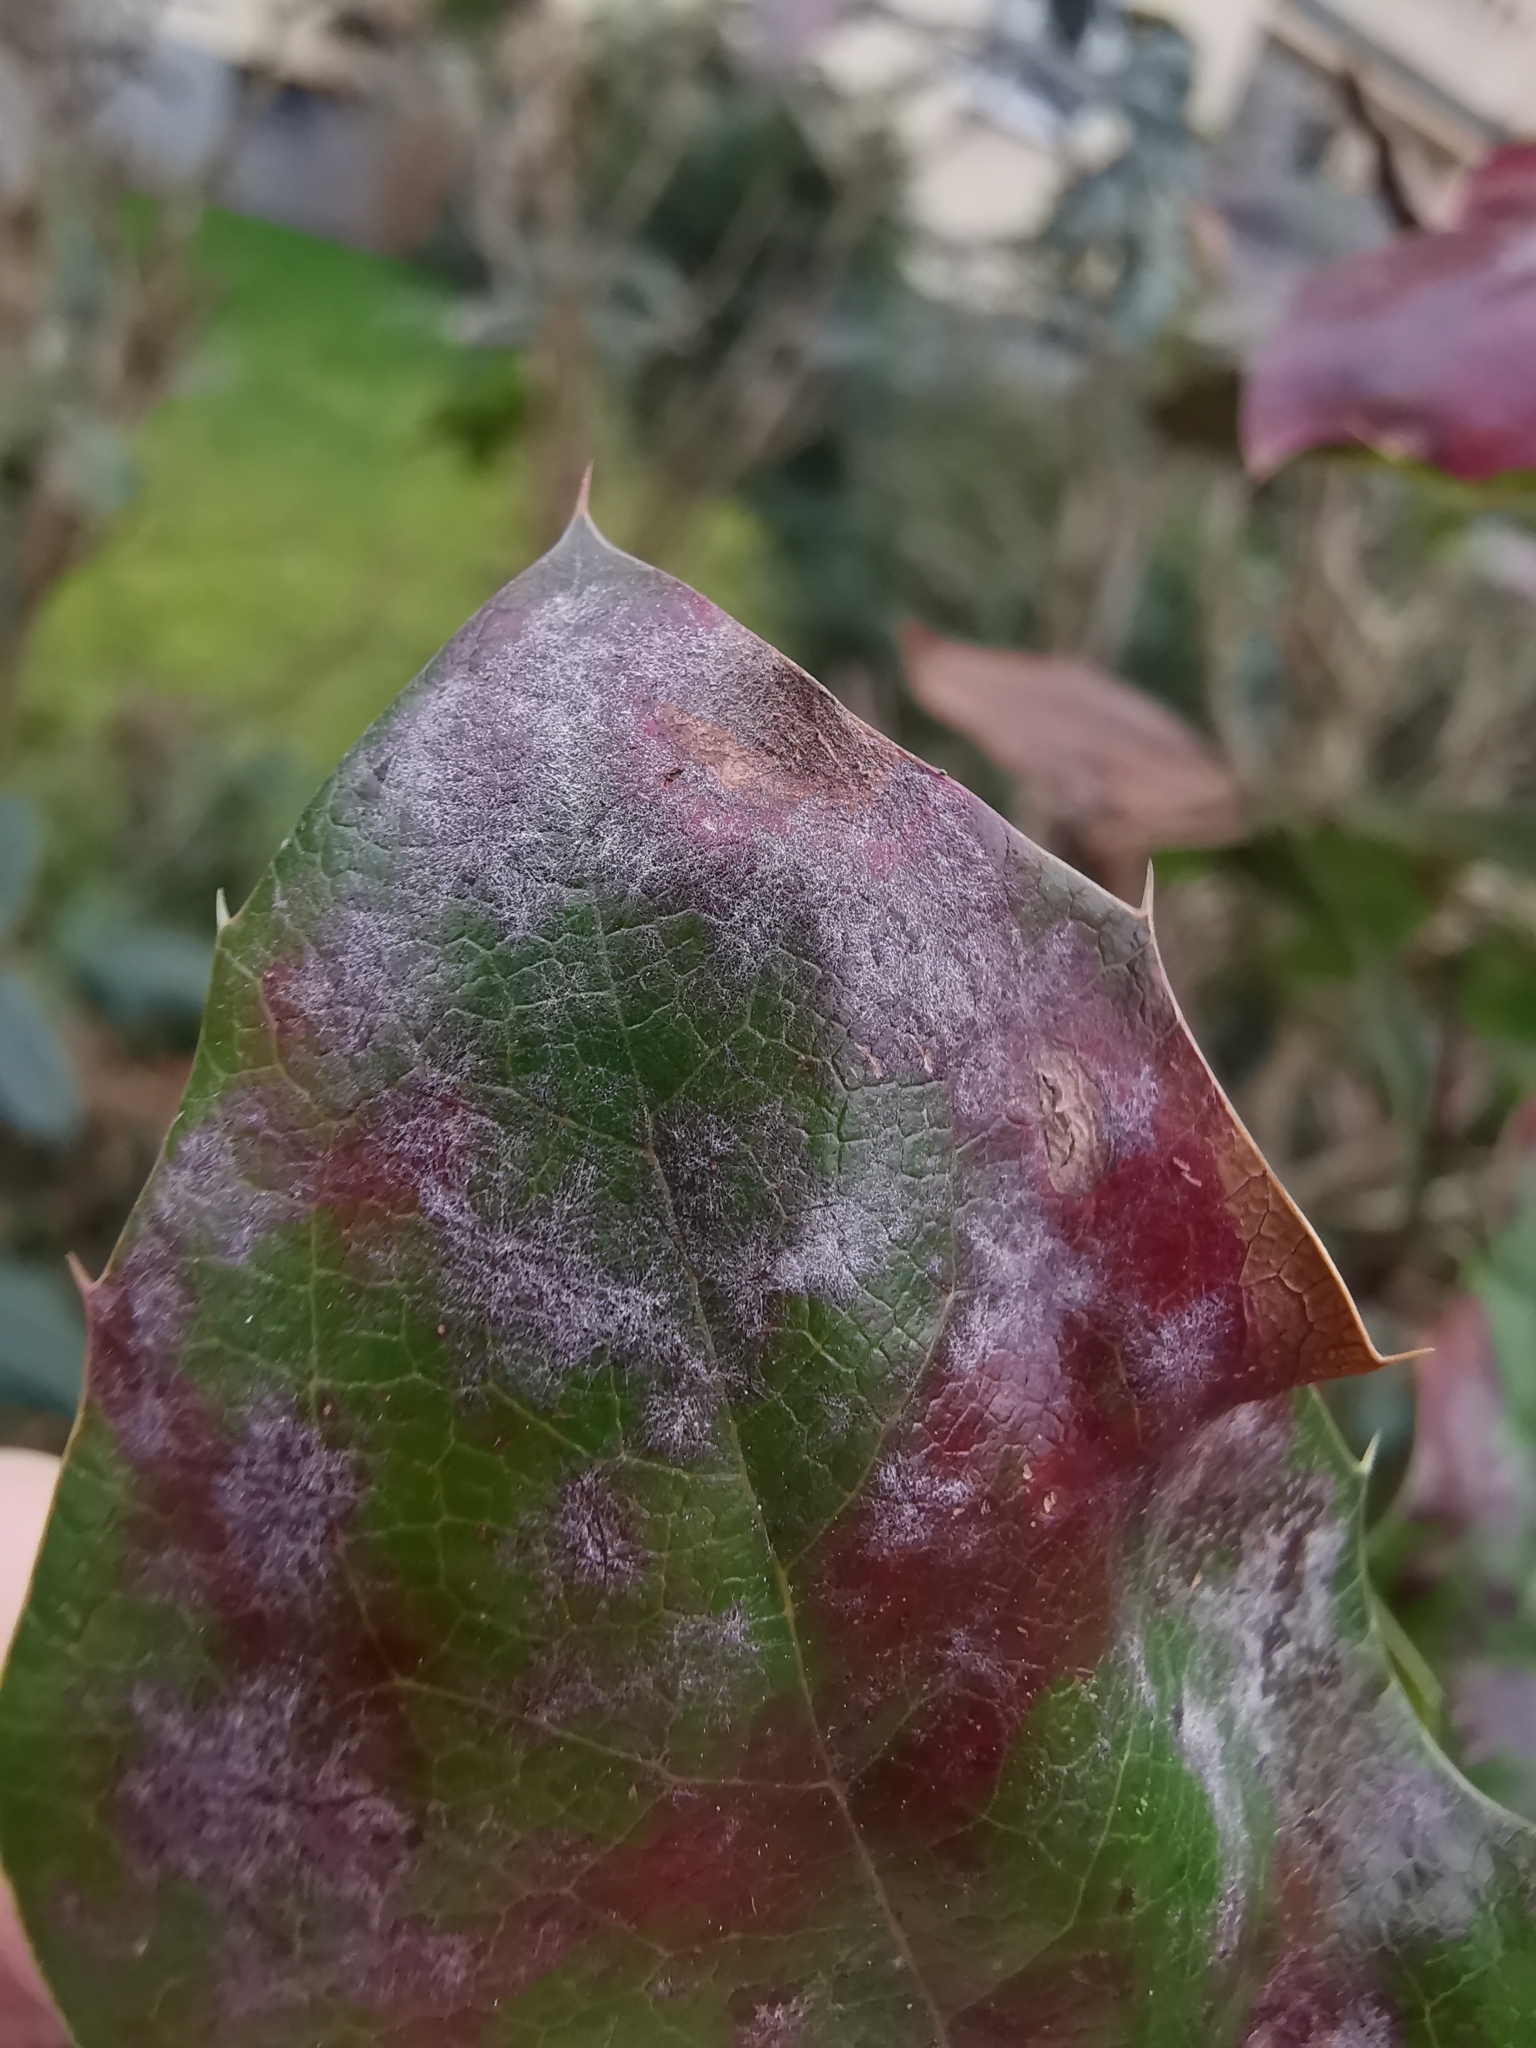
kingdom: Fungi
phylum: Ascomycota
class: Leotiomycetes
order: Helotiales
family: Erysiphaceae
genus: Erysiphe
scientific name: Erysiphe berberidis
